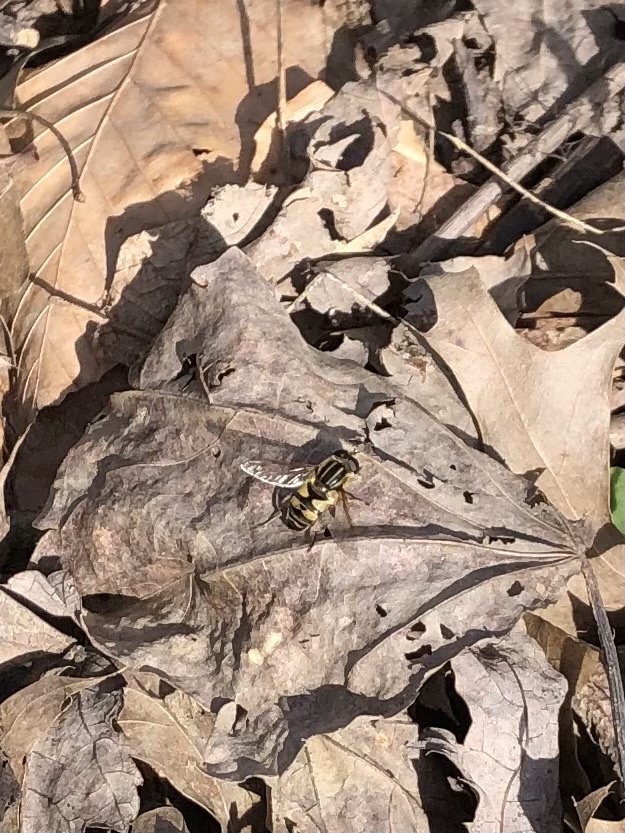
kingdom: Animalia
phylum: Arthropoda
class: Insecta
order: Diptera
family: Syrphidae
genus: Helophilus
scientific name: Helophilus fasciatus
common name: Narrow-headed marsh fly
